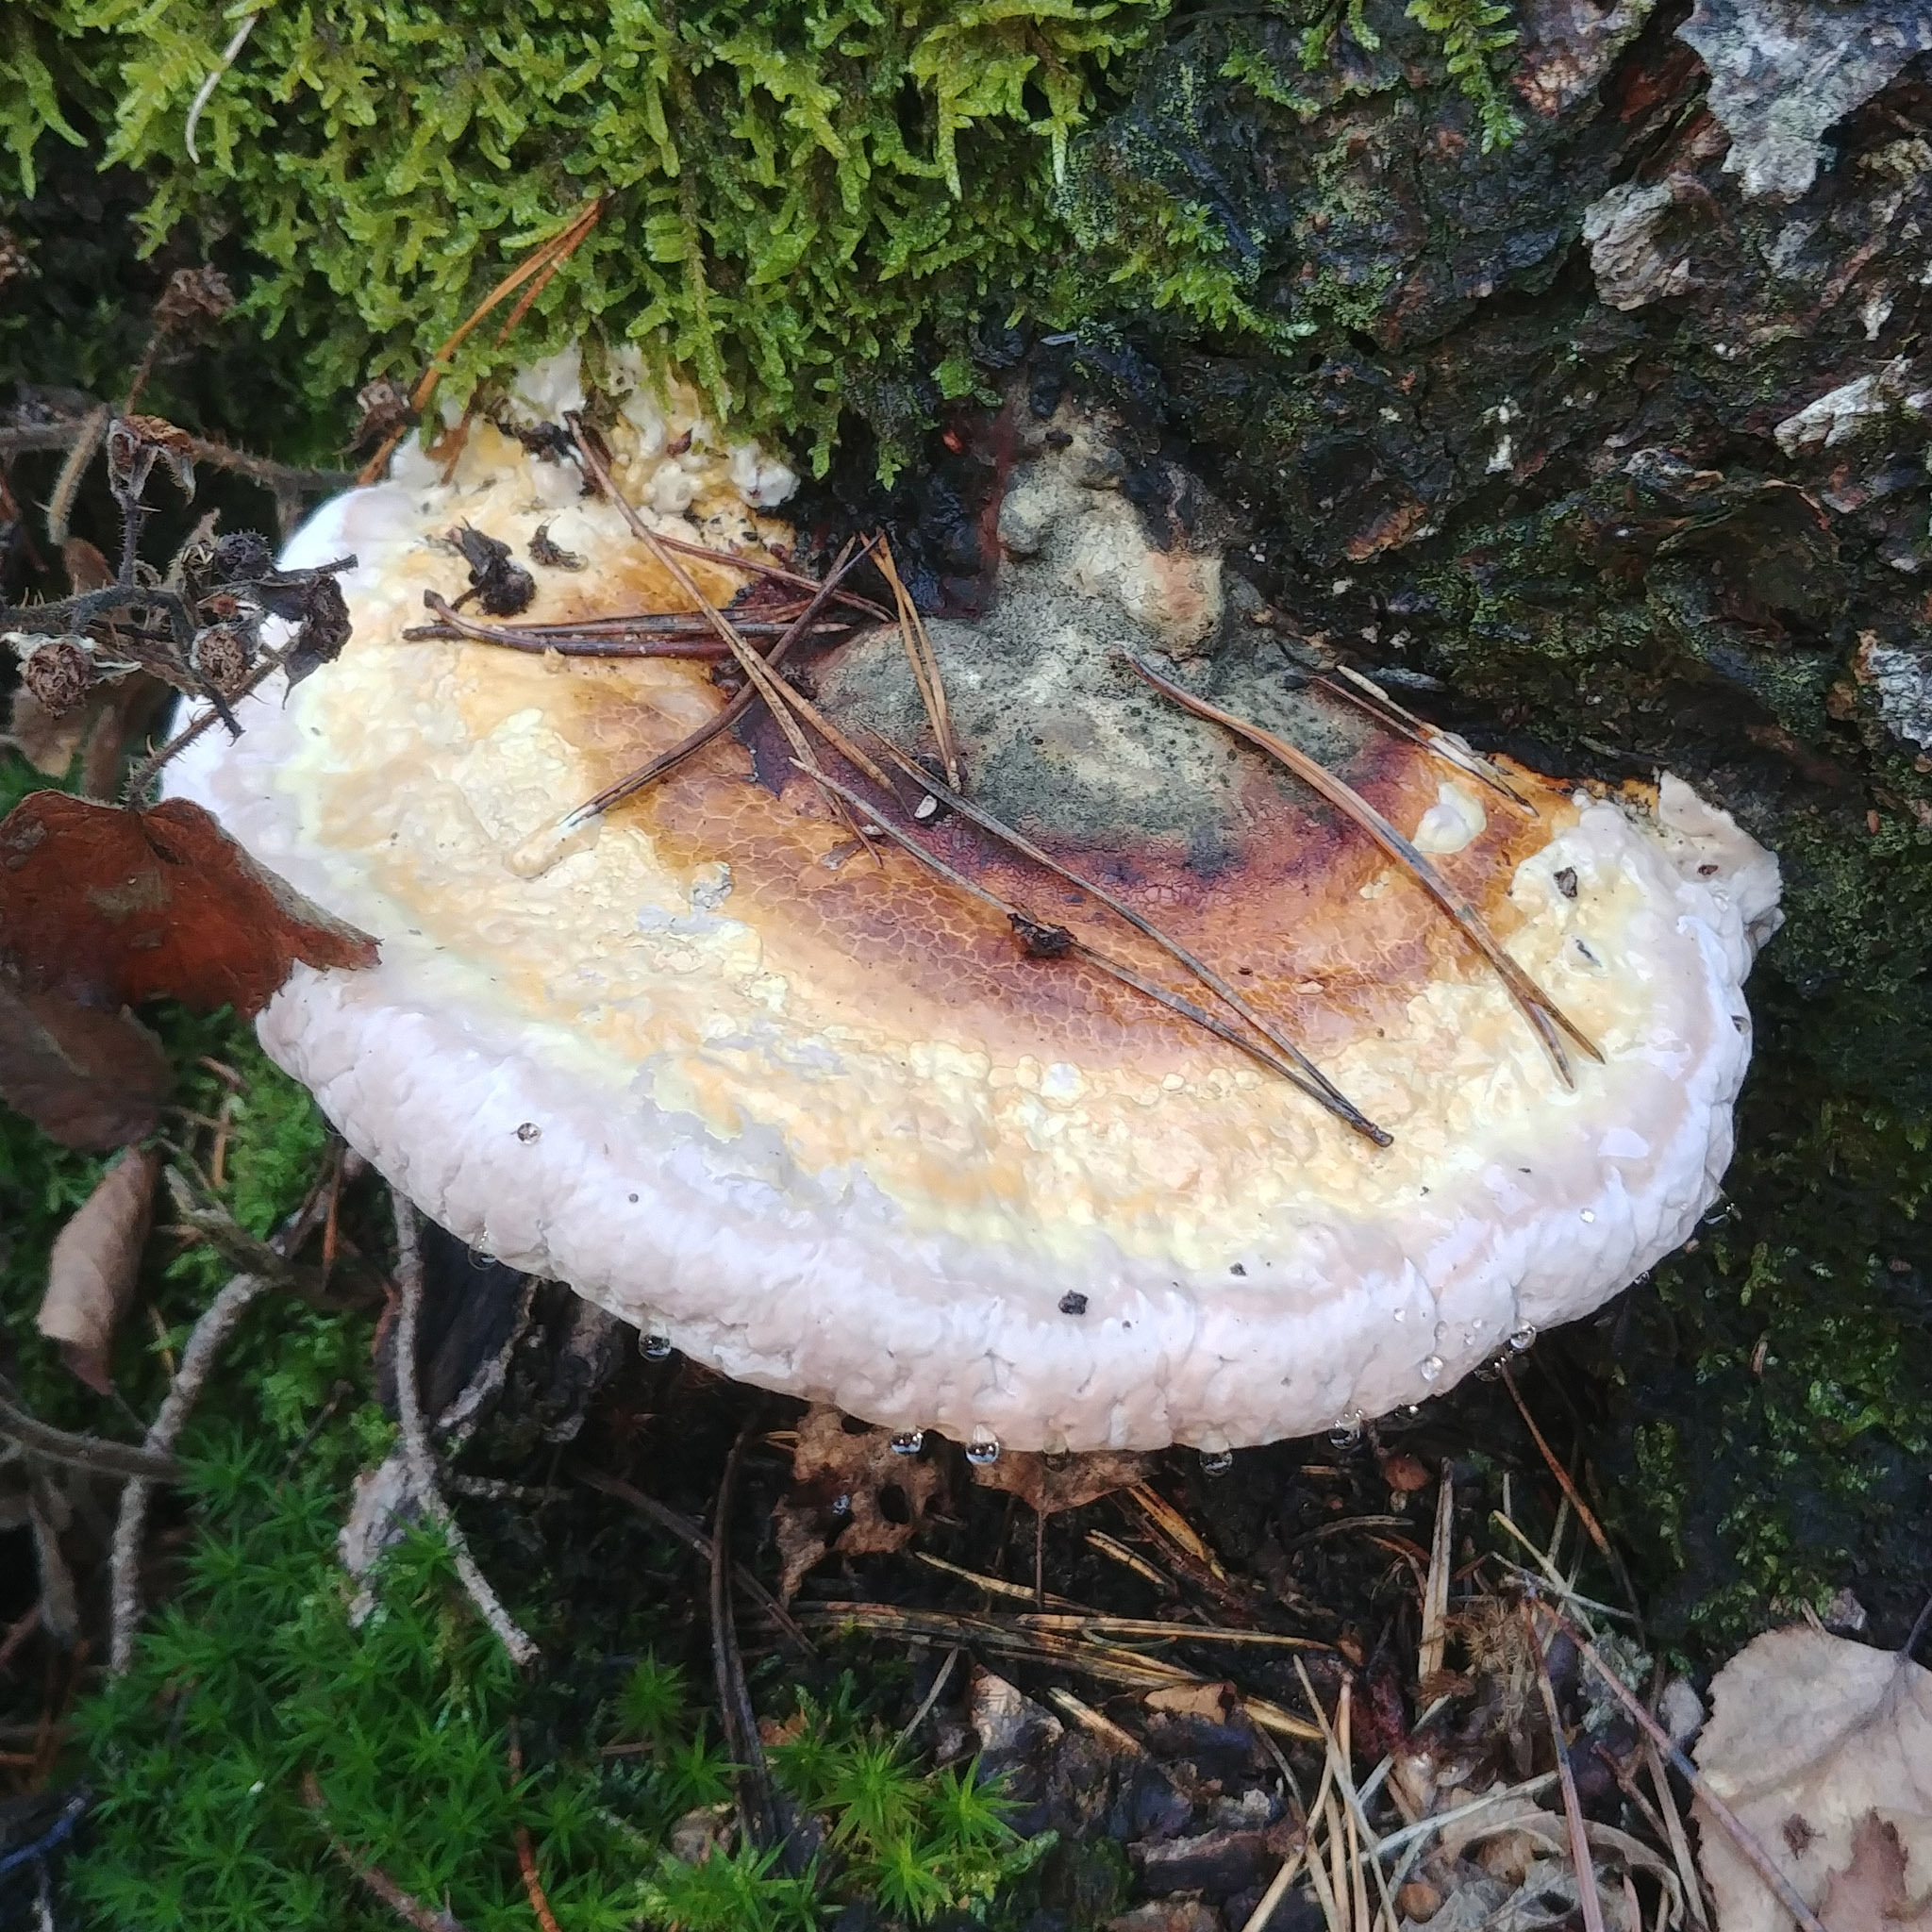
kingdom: Fungi
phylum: Basidiomycota
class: Agaricomycetes
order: Polyporales
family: Fomitopsidaceae
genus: Fomitopsis
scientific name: Fomitopsis pinicola
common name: Red-belted bracket
